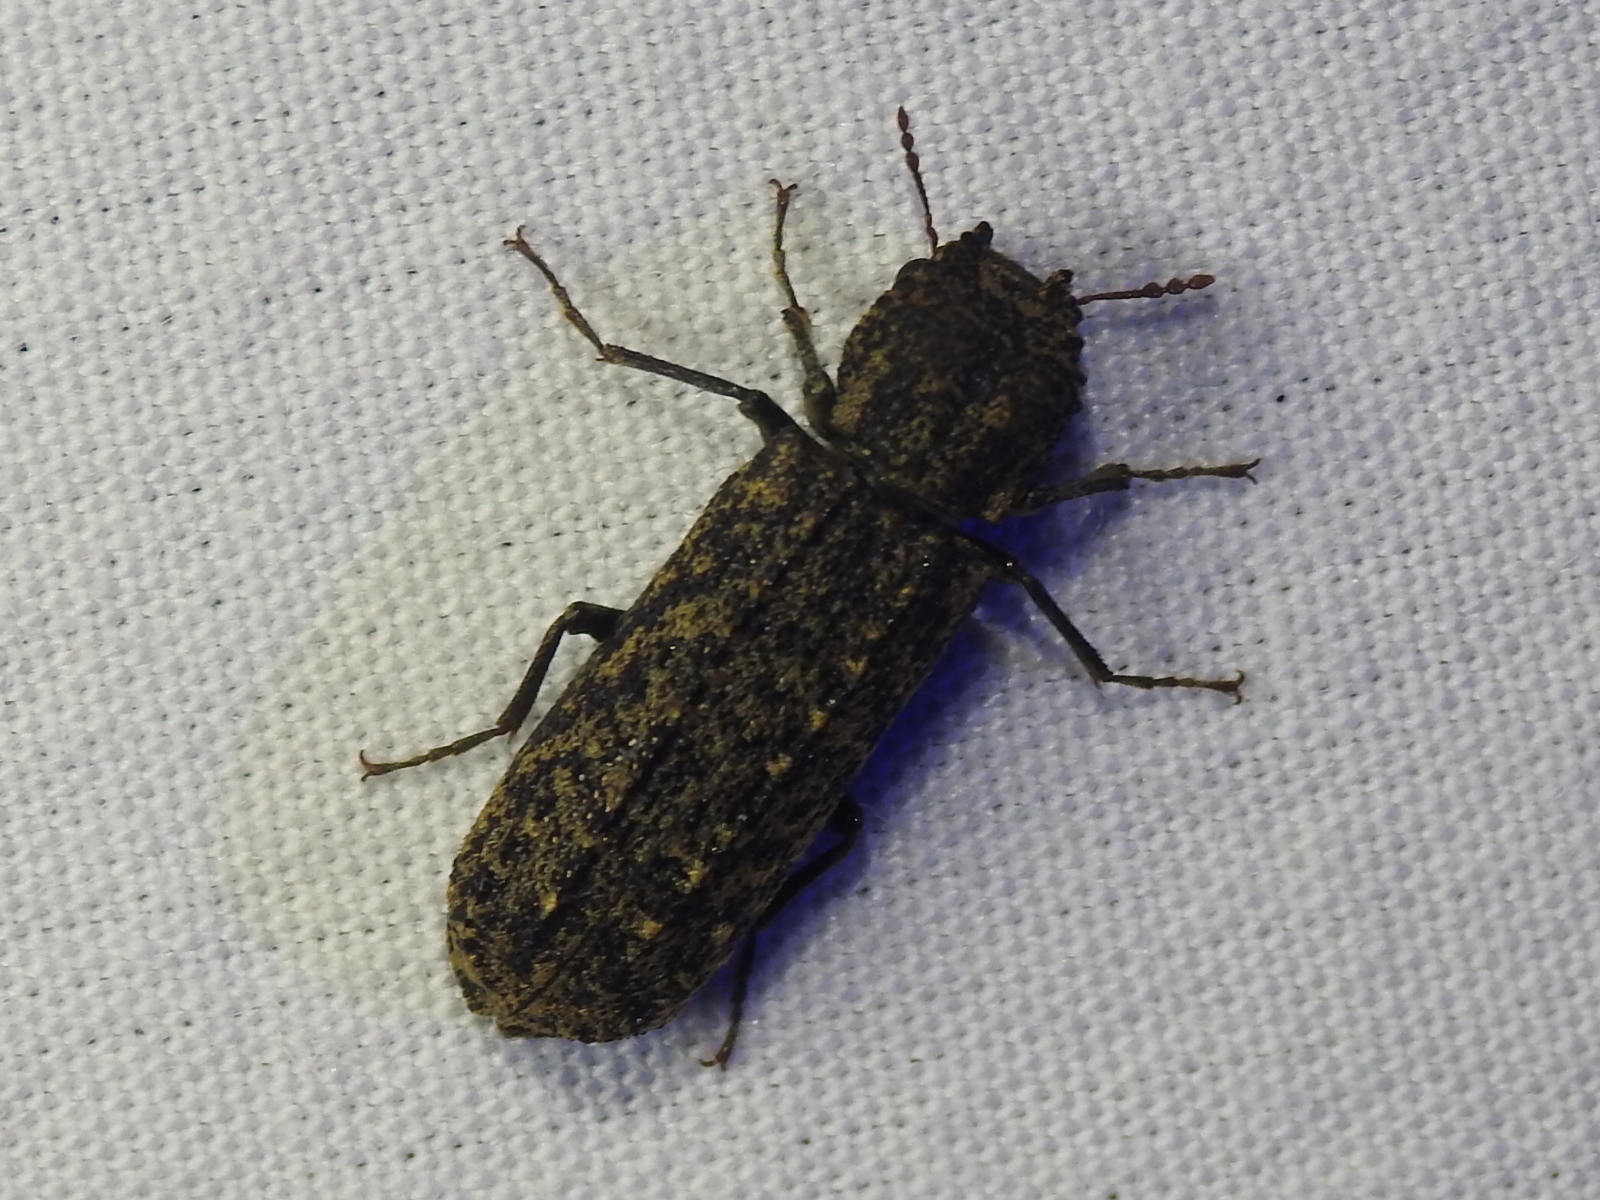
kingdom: Animalia
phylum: Arthropoda
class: Insecta
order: Coleoptera
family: Bostrichidae
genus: Lichenophanes
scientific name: Lichenophanes bicornis
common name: Two-horned powder-post beetle
